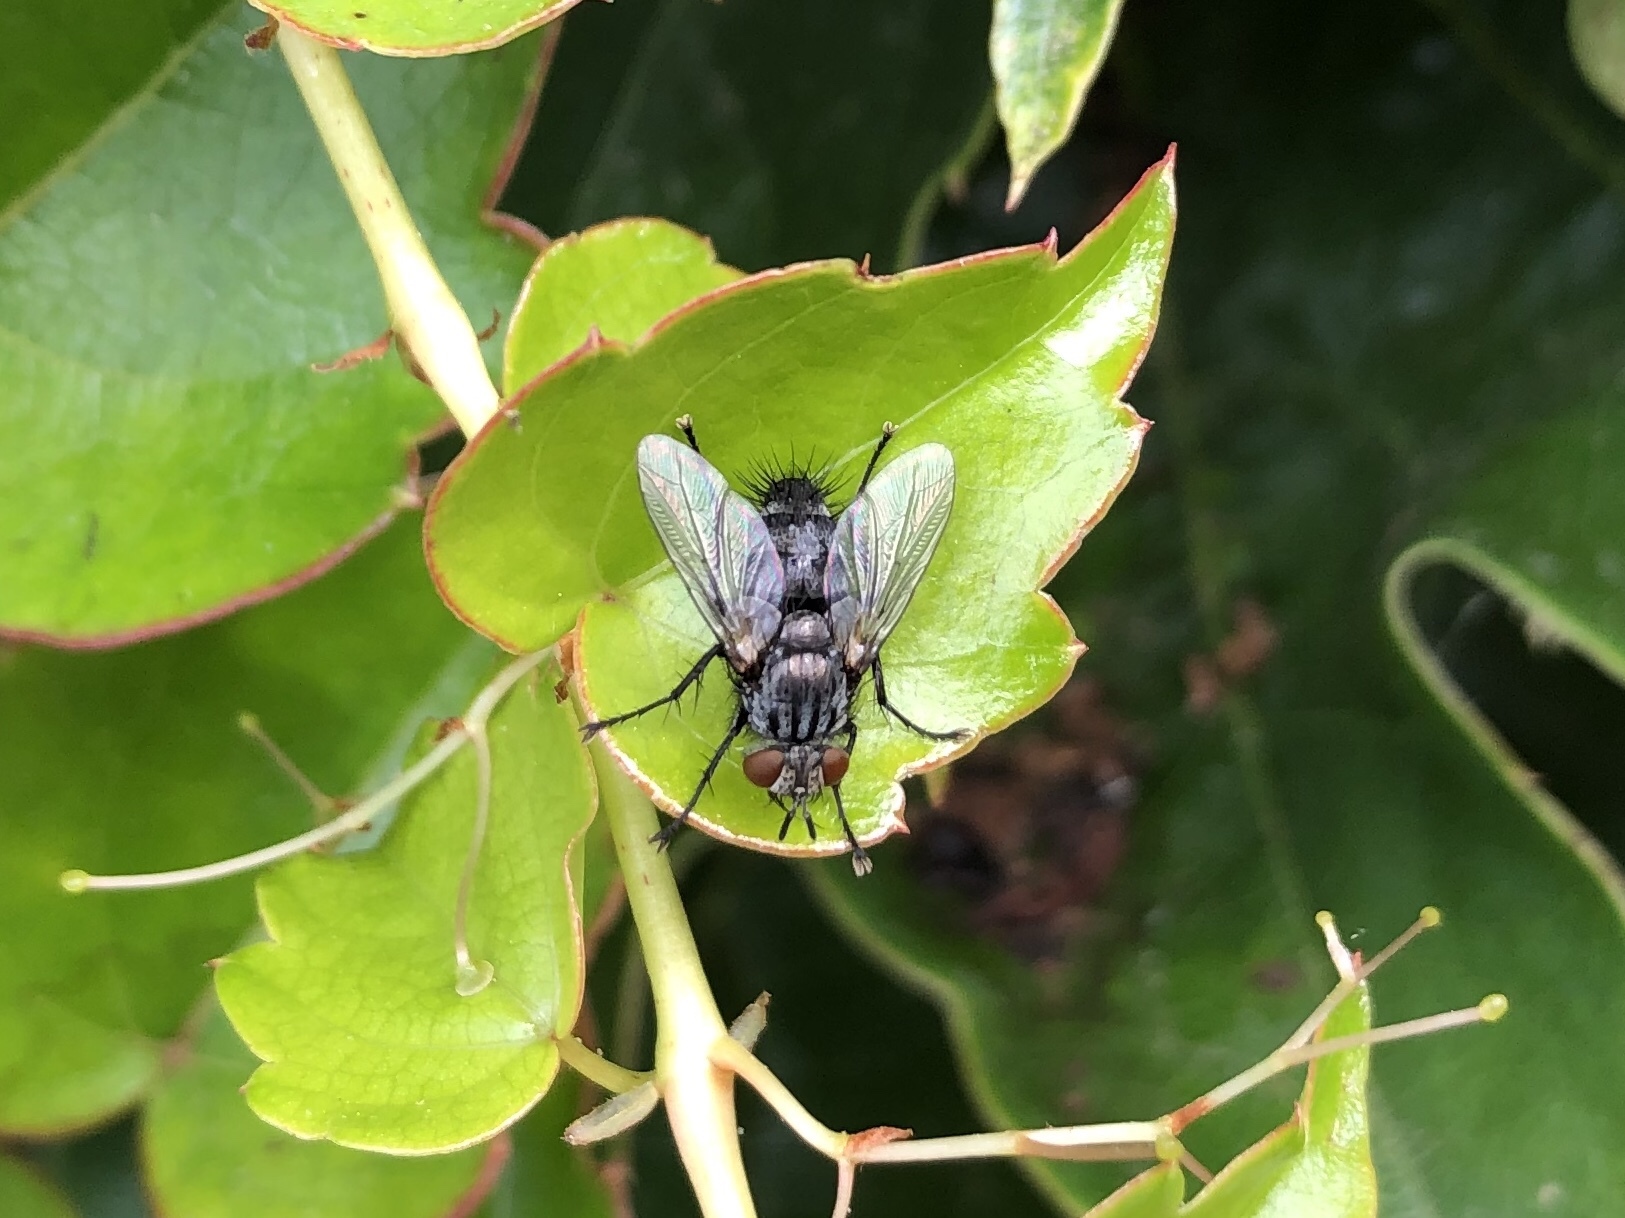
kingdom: Animalia
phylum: Arthropoda
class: Insecta
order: Diptera
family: Tachinidae
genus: Voria
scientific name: Voria ruralis
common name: Parasitic fly
